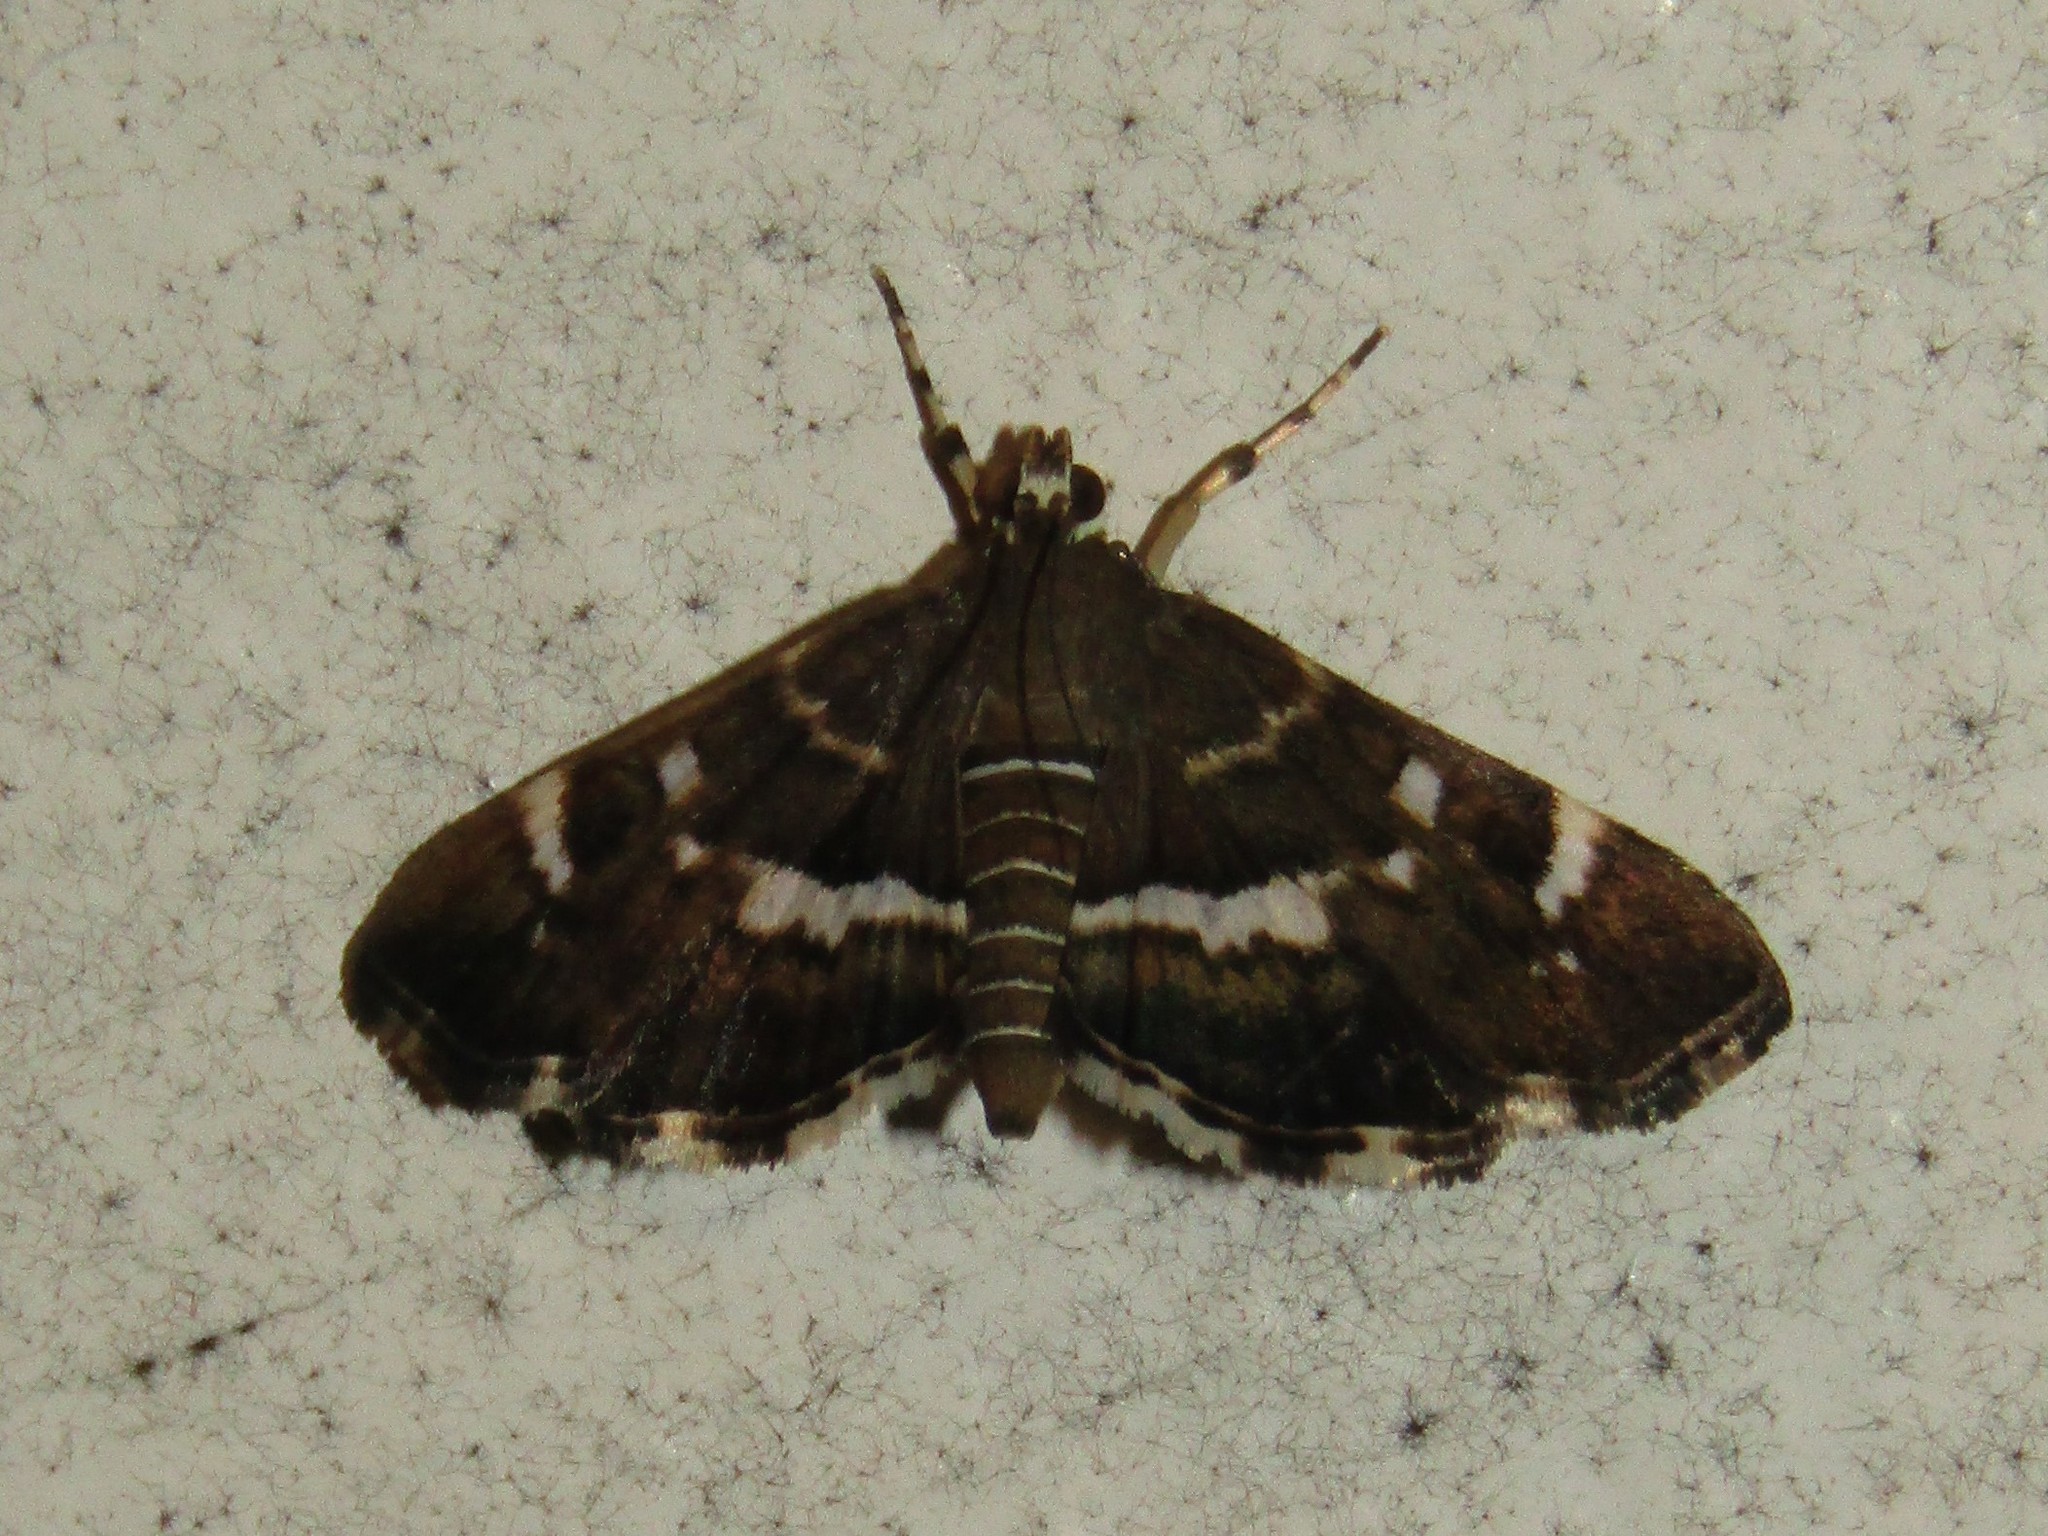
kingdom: Animalia
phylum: Arthropoda
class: Insecta
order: Lepidoptera
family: Crambidae
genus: Hymenia
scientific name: Hymenia perspectalis
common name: Spotted beet webworm
